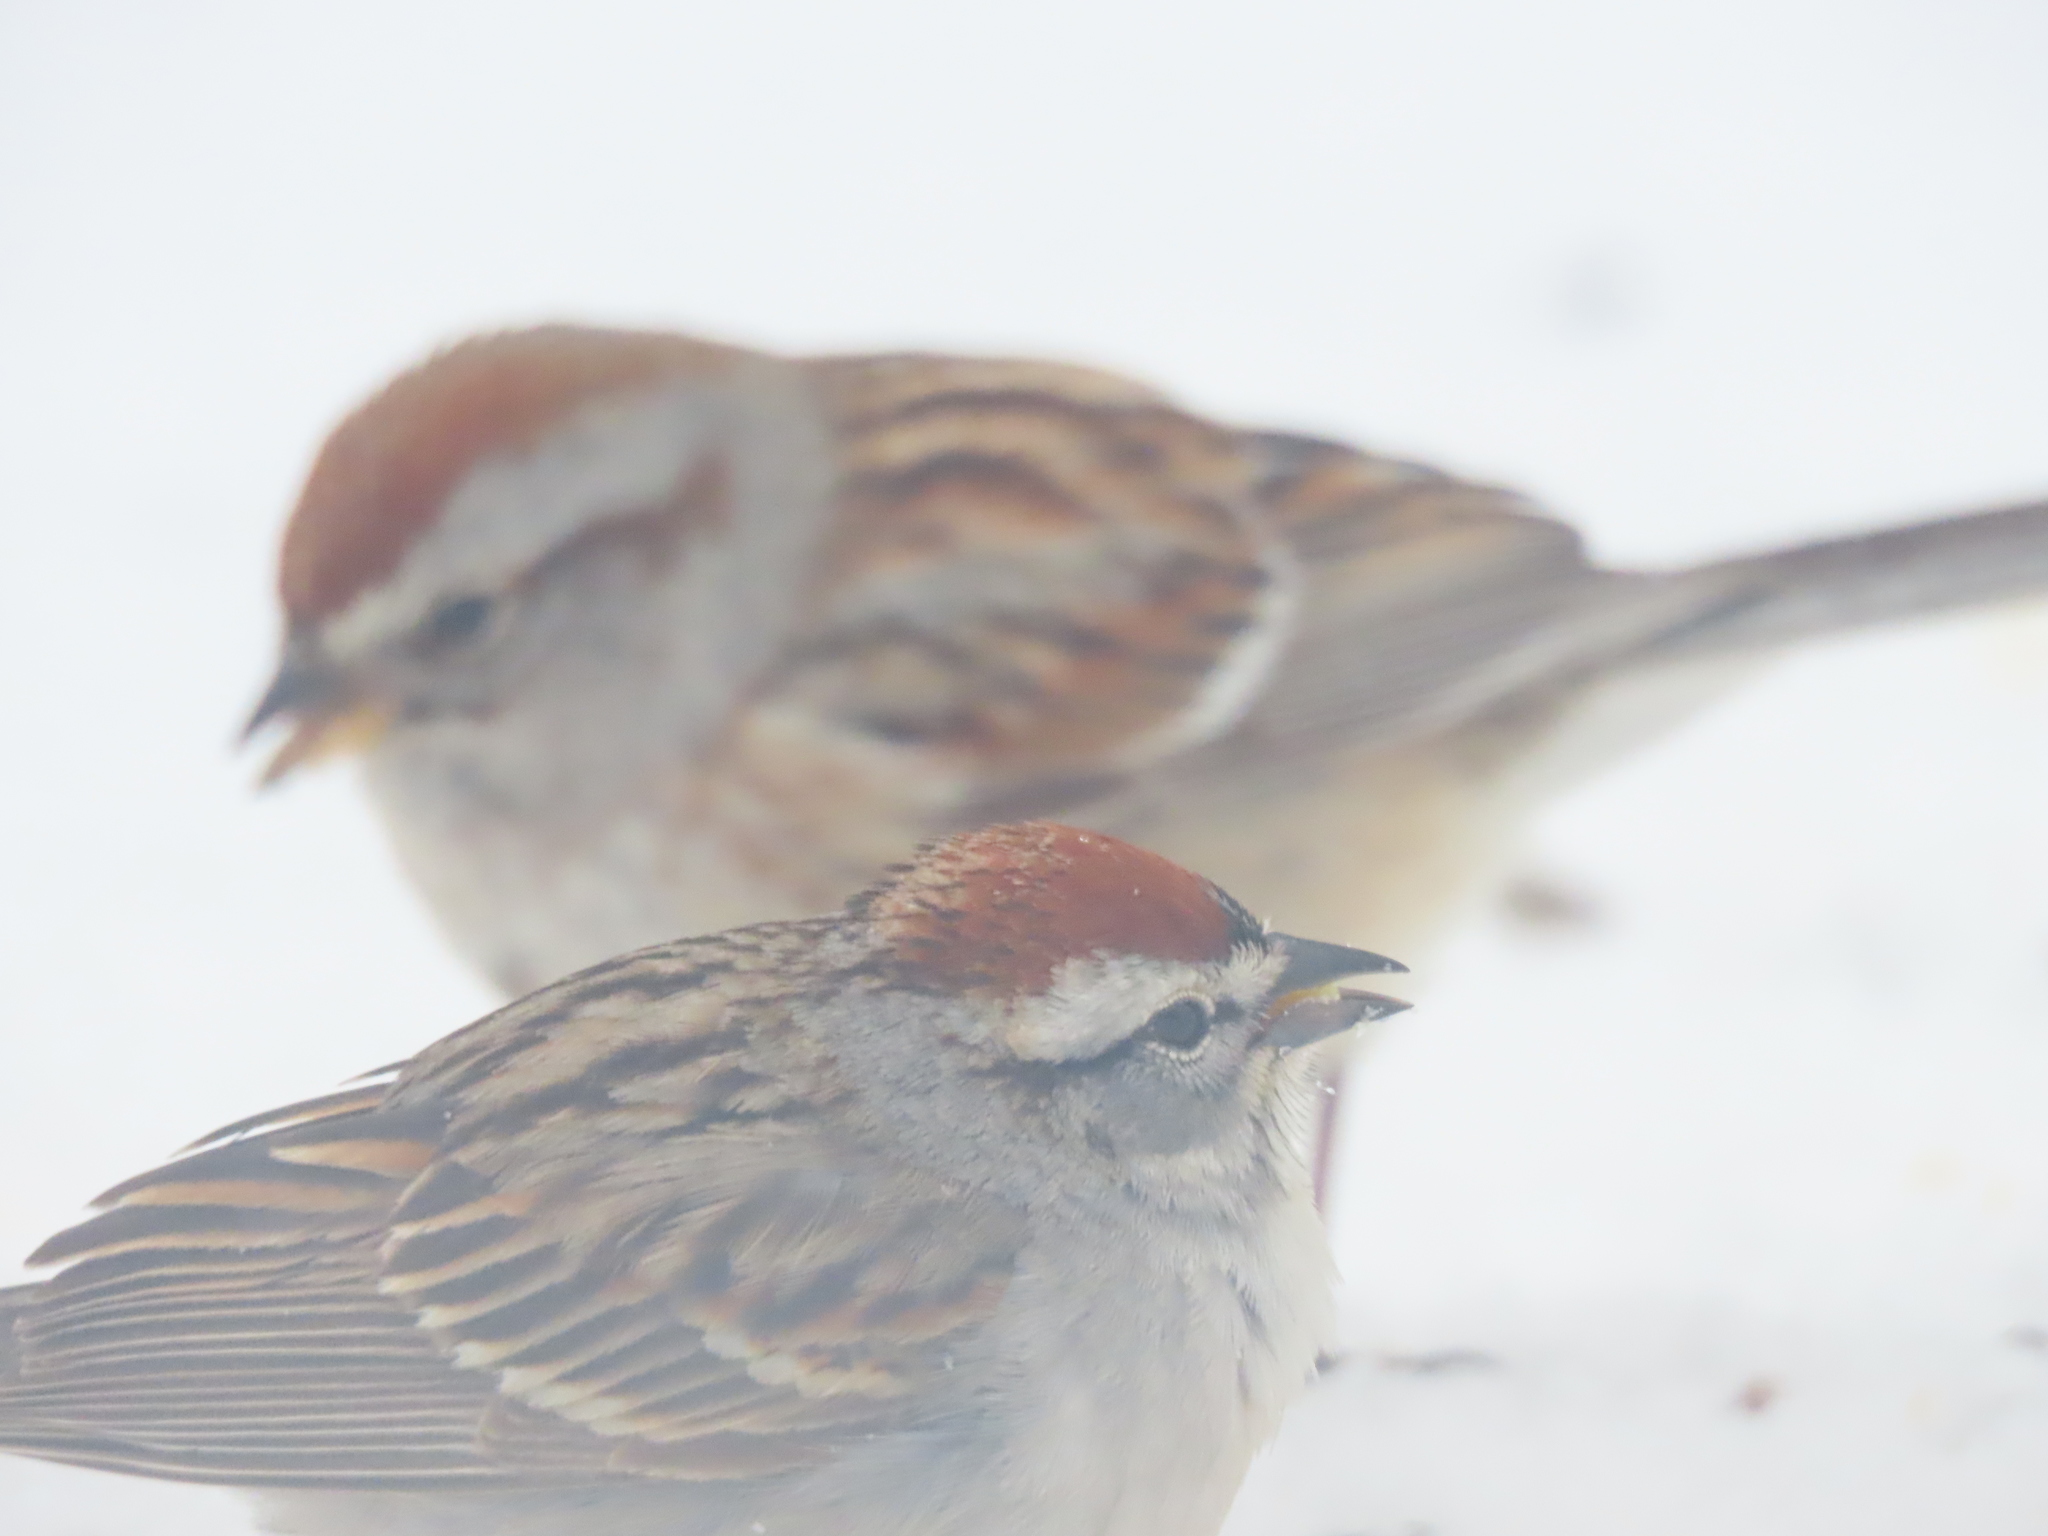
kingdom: Animalia
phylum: Chordata
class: Aves
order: Passeriformes
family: Passerellidae
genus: Spizella
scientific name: Spizella passerina
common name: Chipping sparrow
